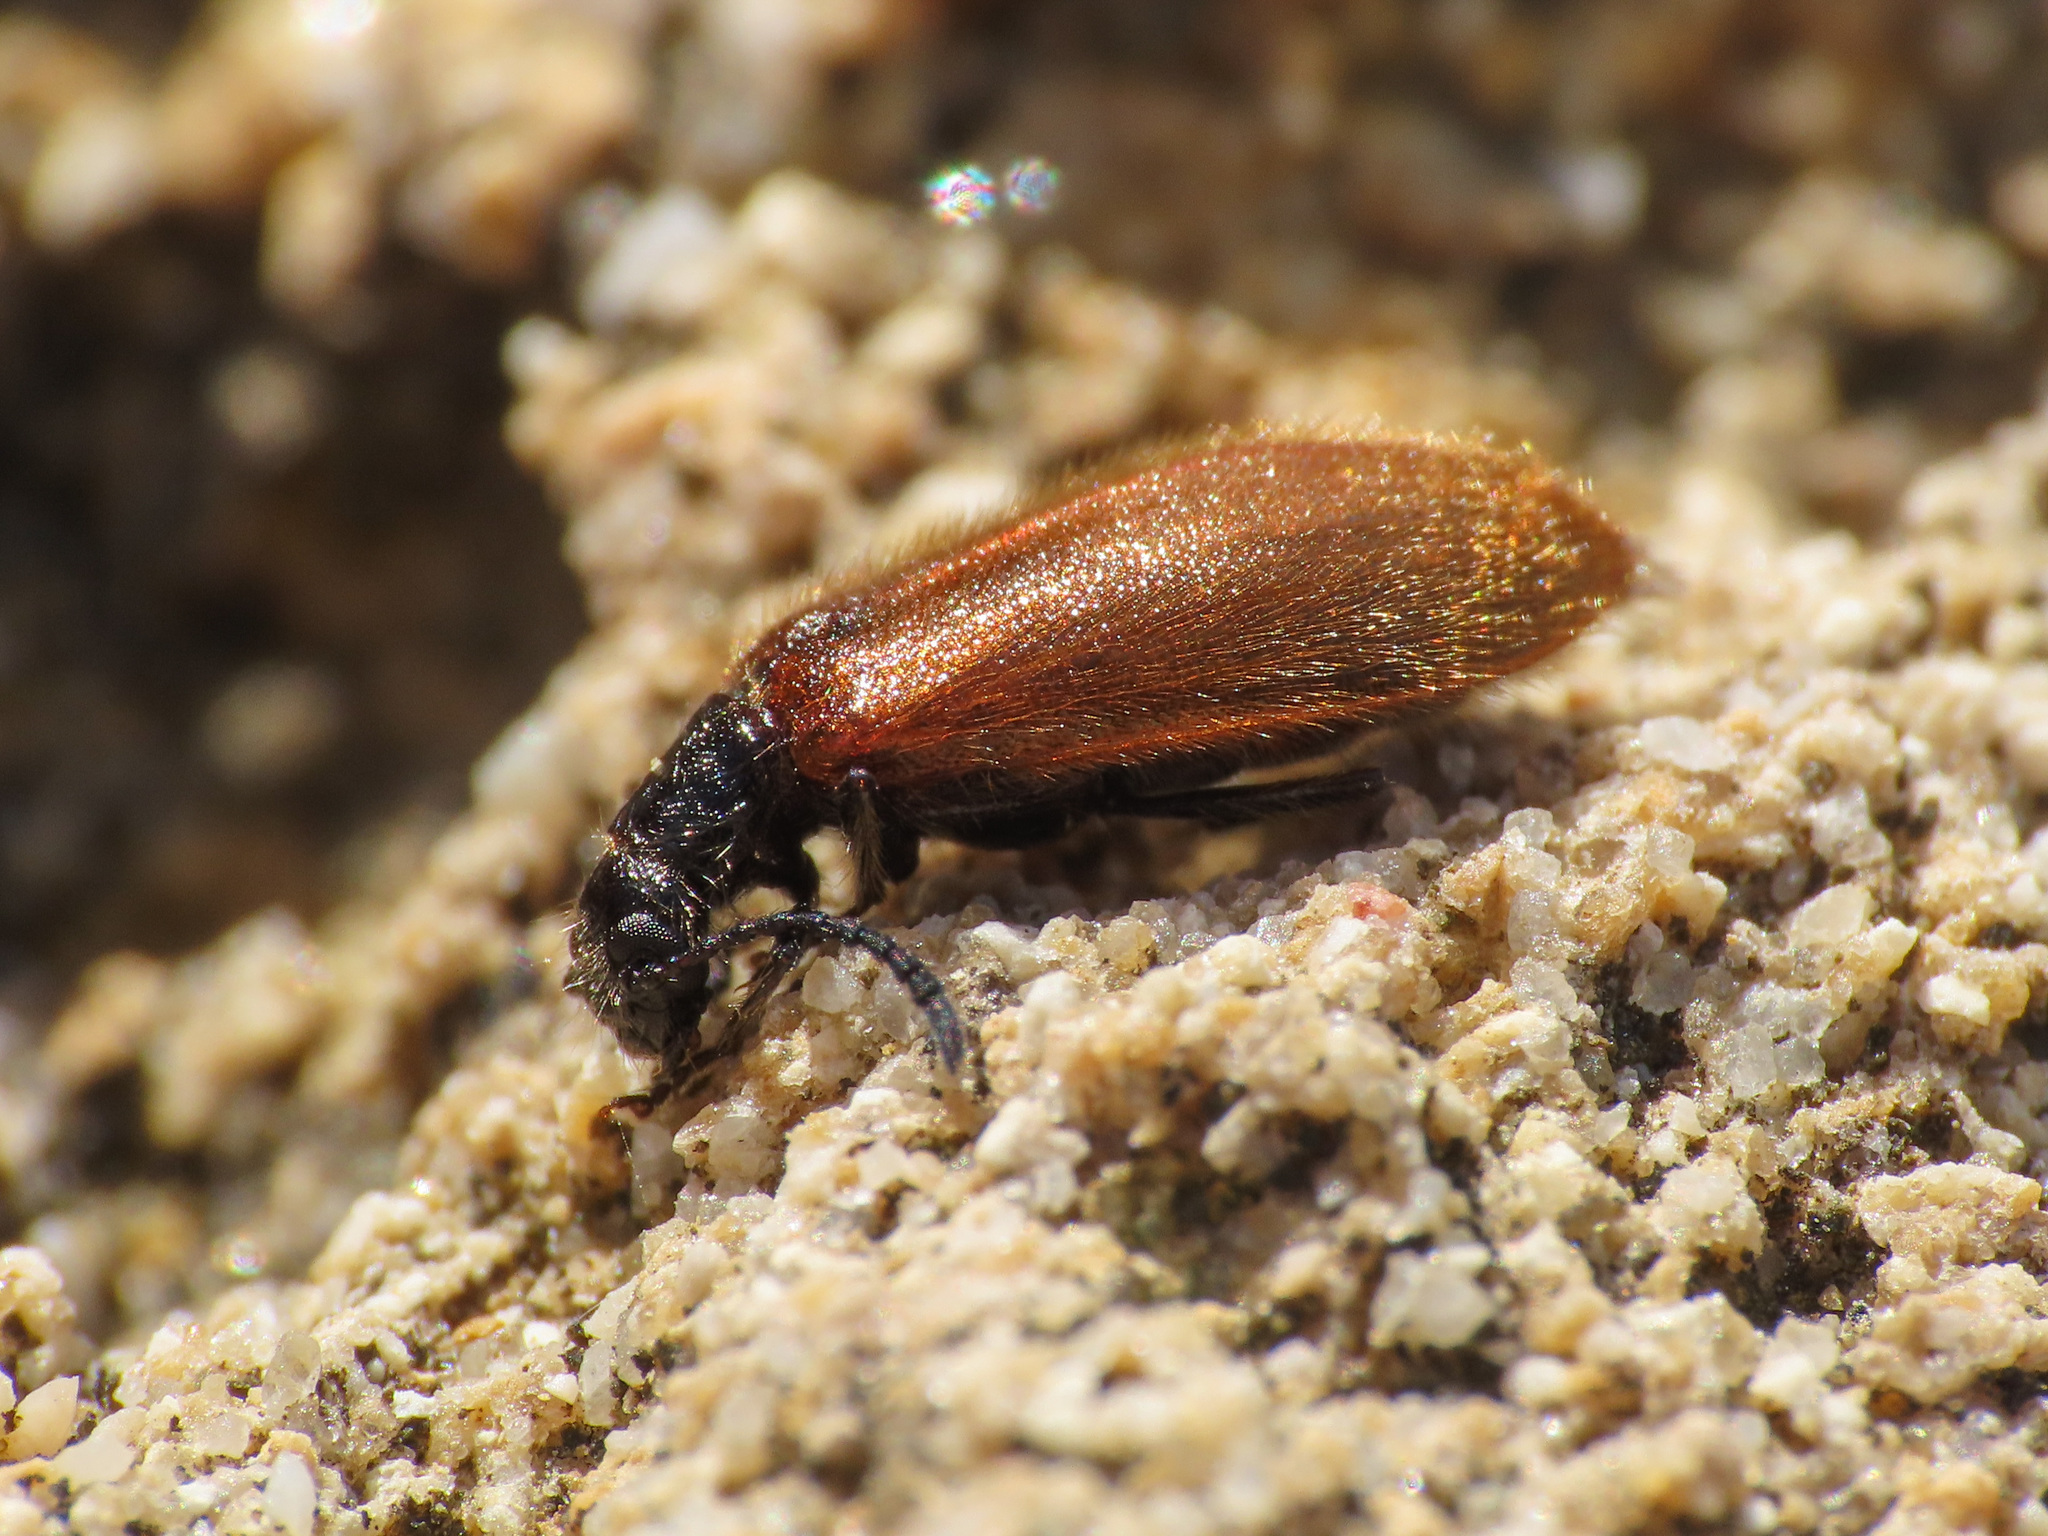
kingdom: Animalia
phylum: Arthropoda
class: Insecta
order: Coleoptera
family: Tenebrionidae
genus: Lagria
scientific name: Lagria hirta
